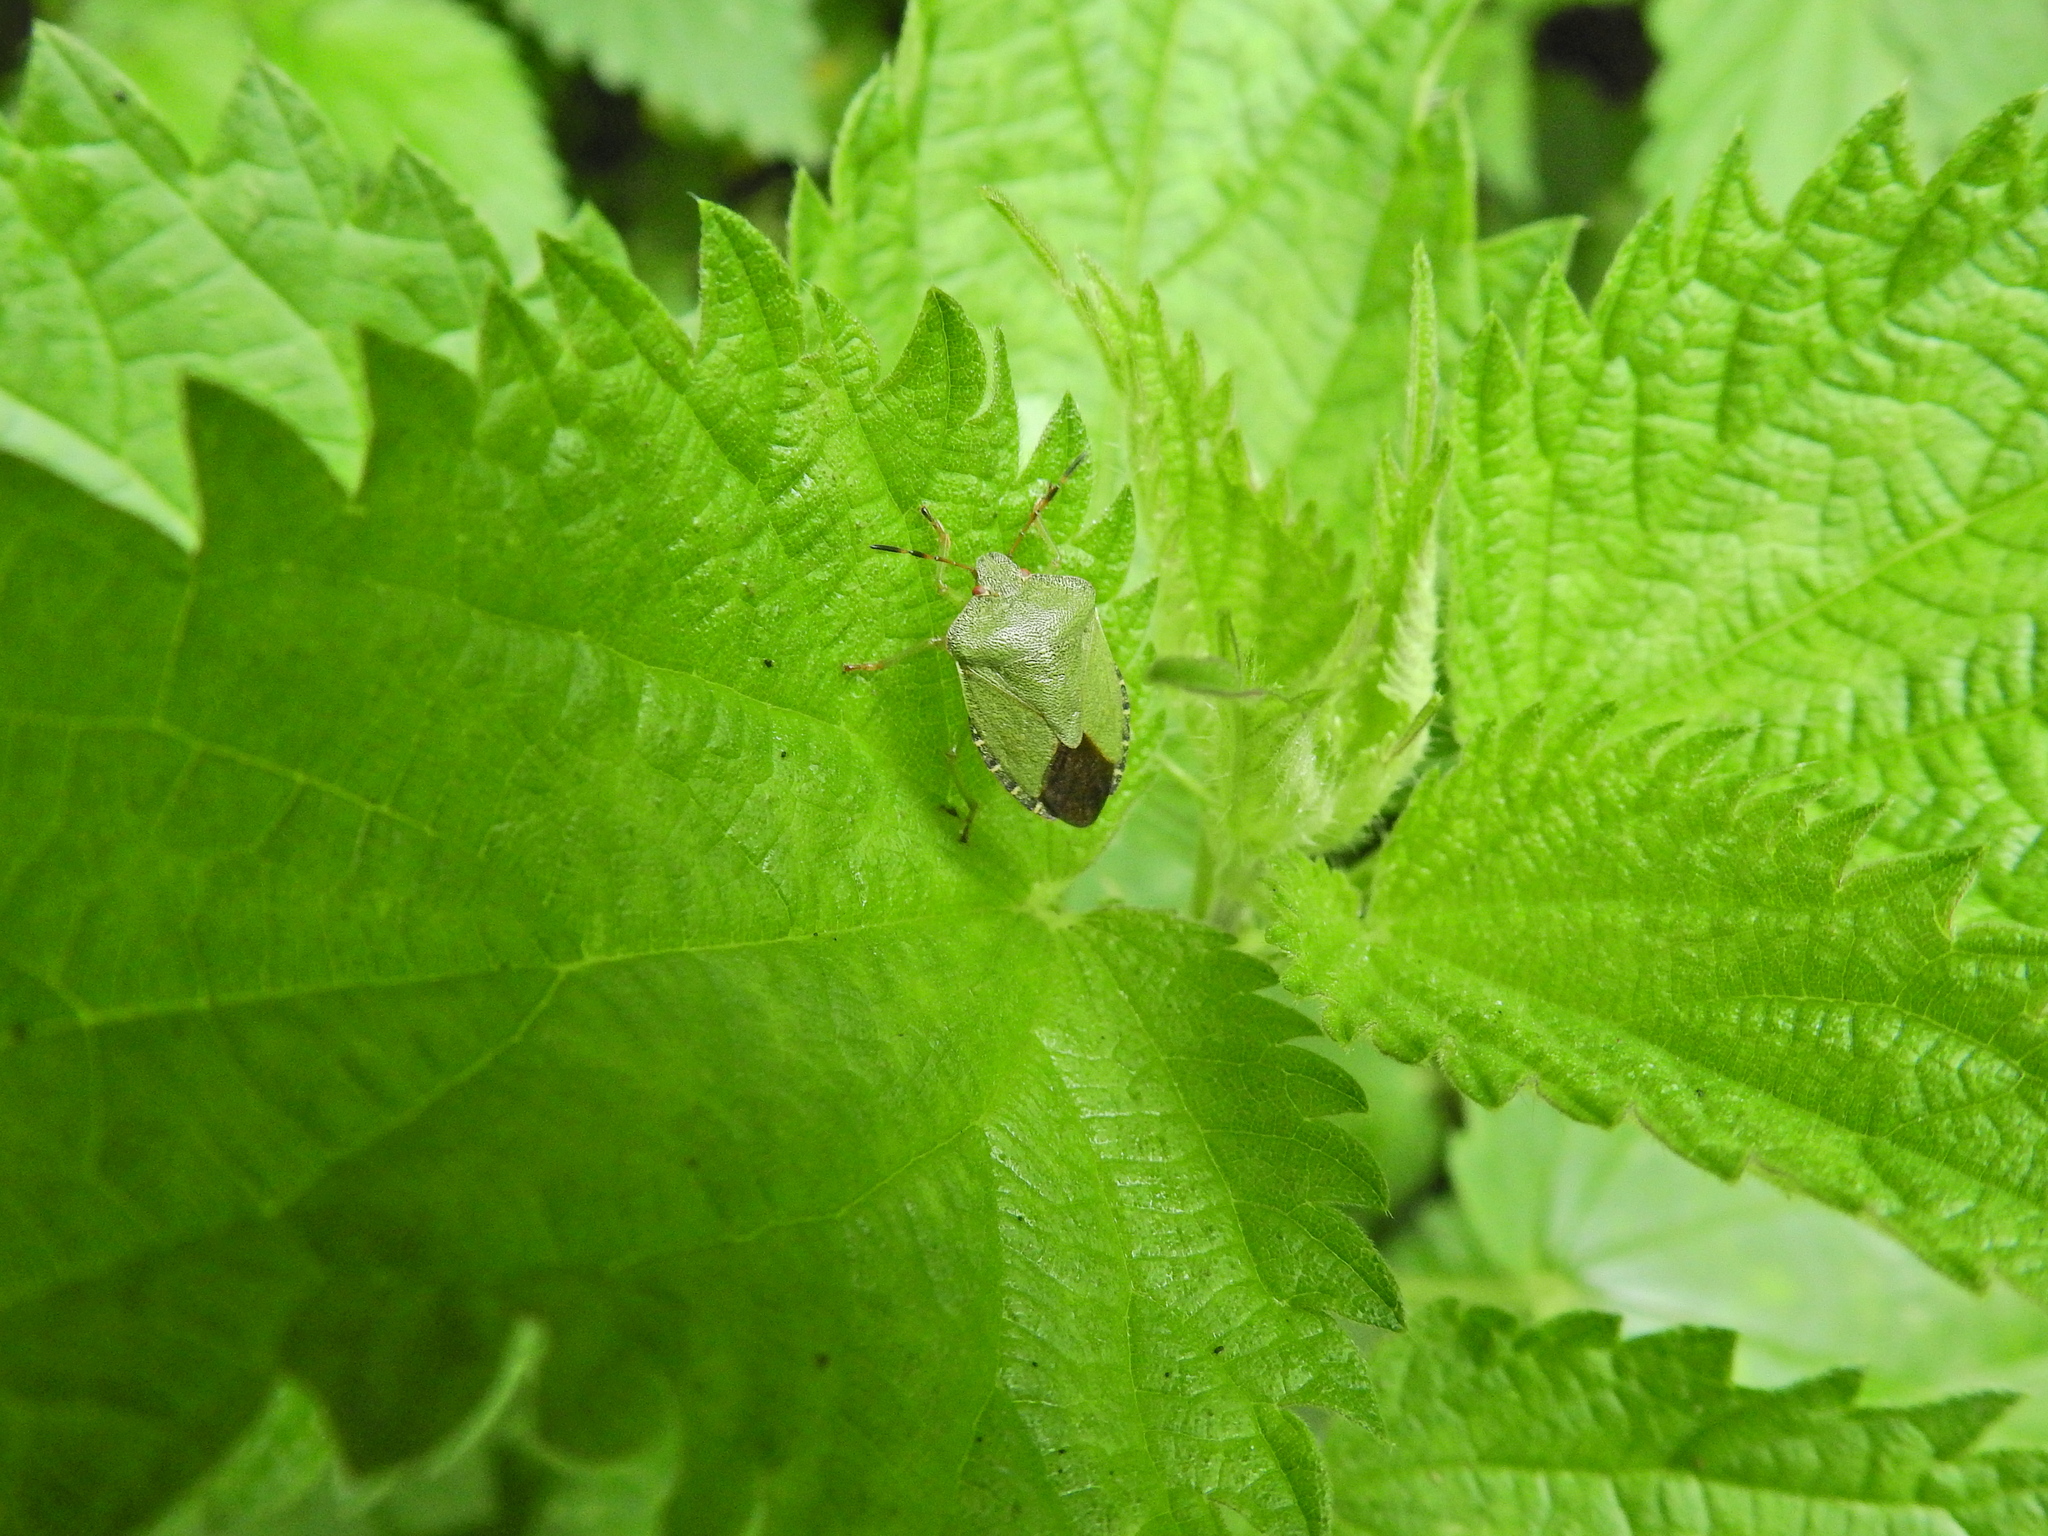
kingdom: Animalia
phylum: Arthropoda
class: Insecta
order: Hemiptera
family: Pentatomidae
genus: Palomena
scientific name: Palomena prasina
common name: Green shieldbug
